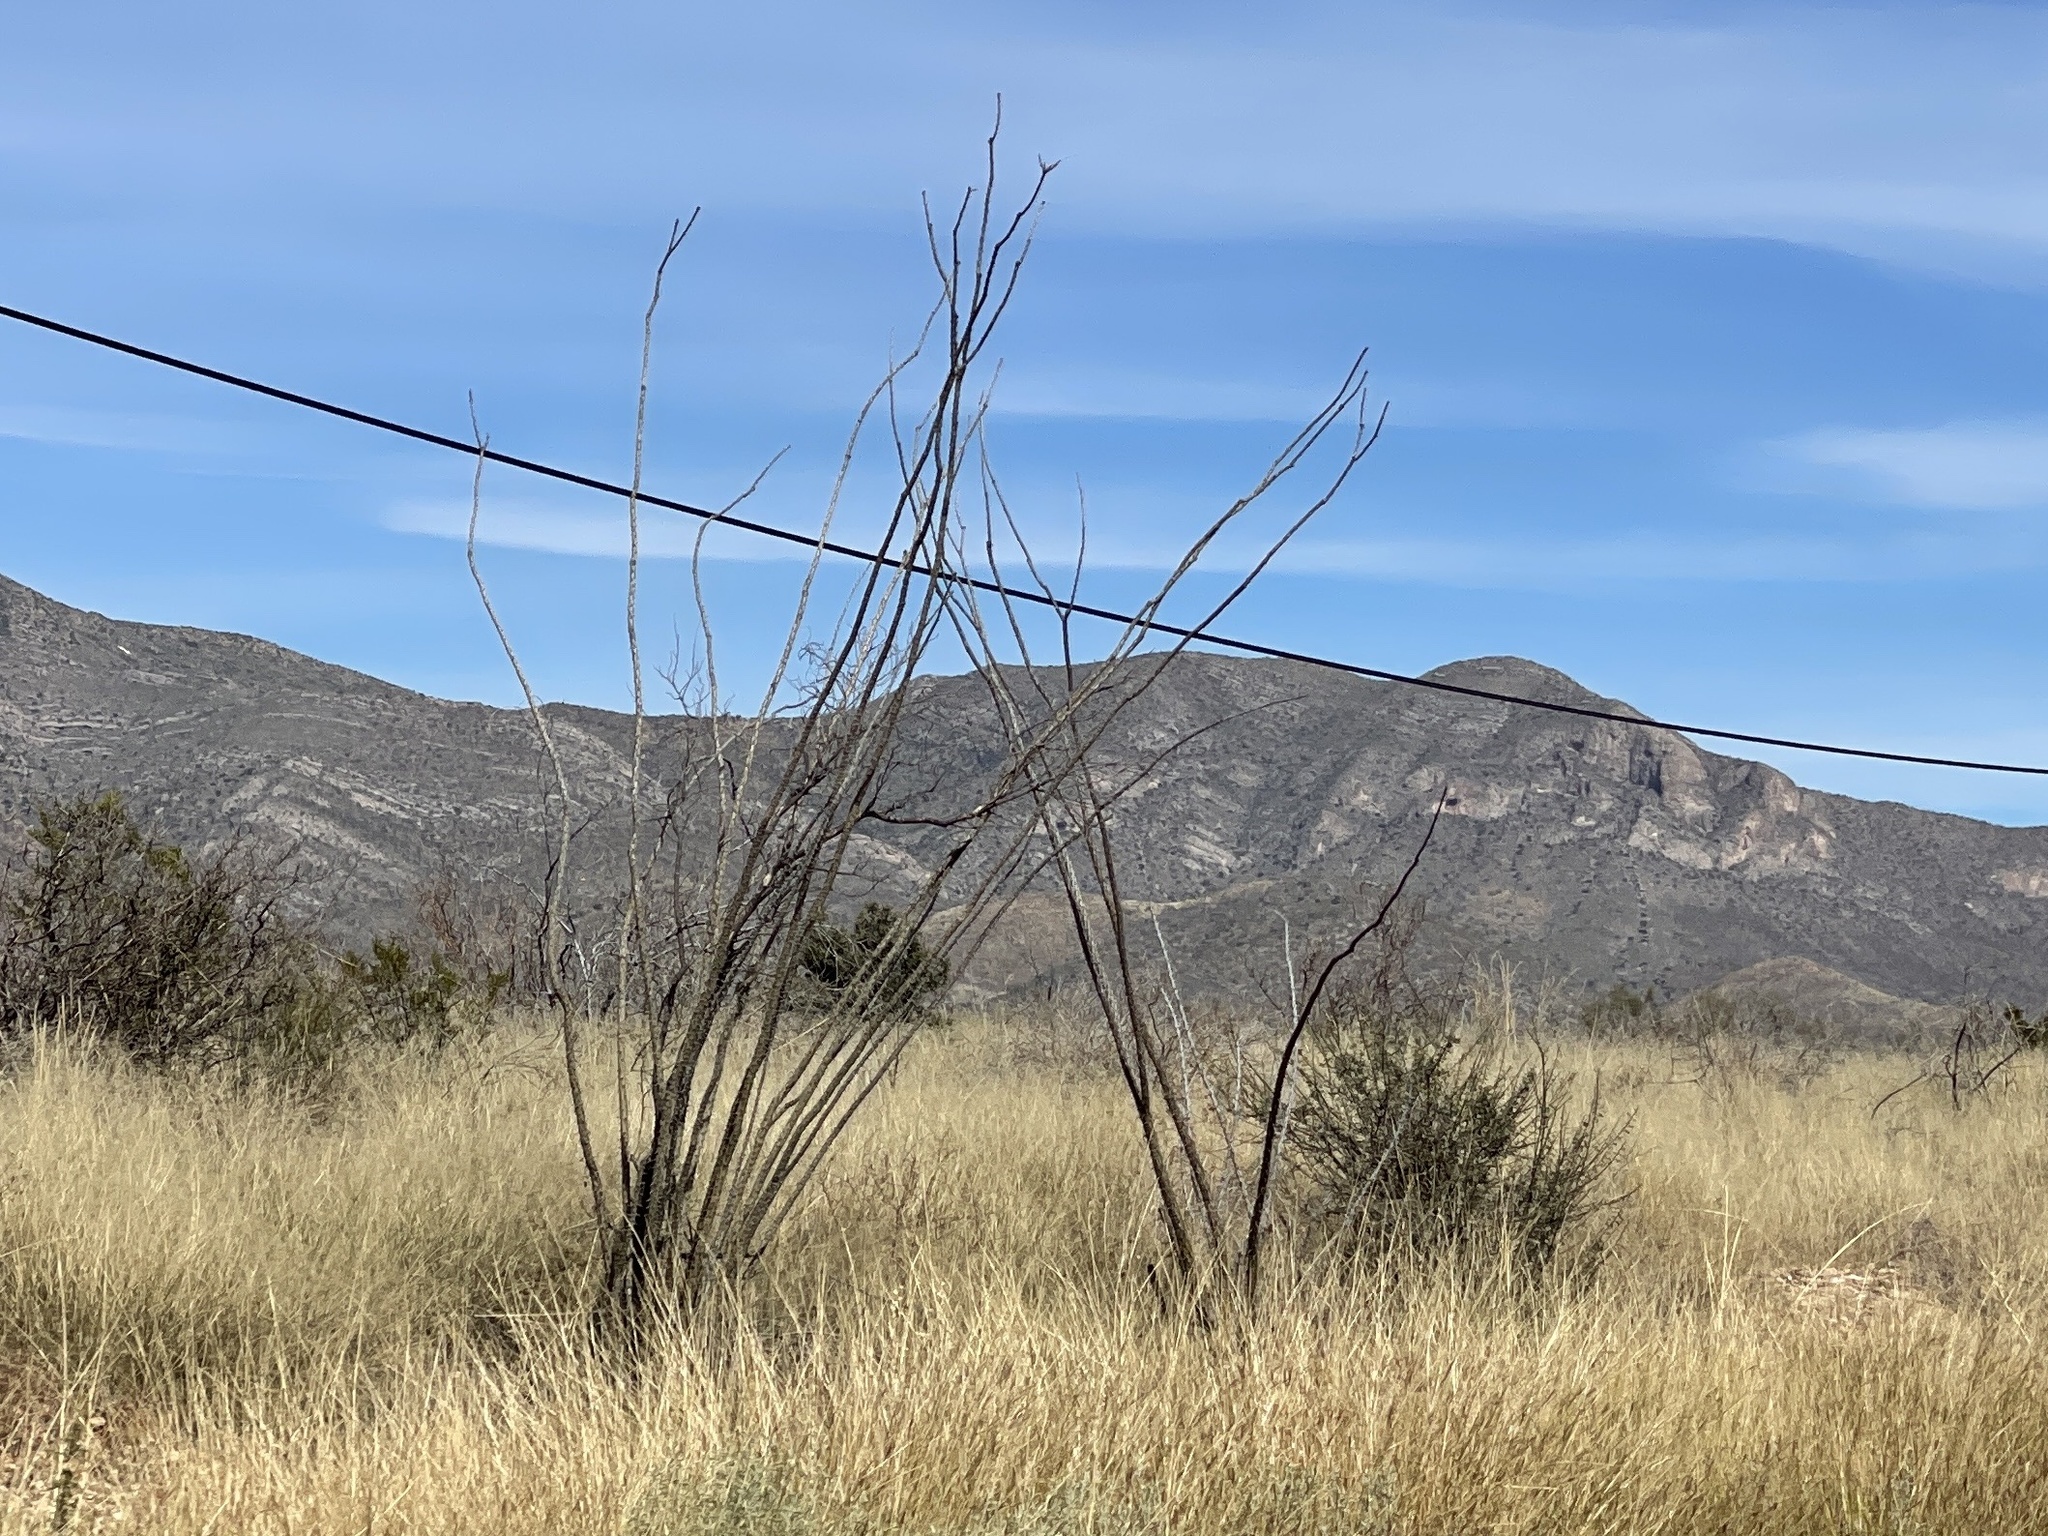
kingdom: Plantae
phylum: Tracheophyta
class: Magnoliopsida
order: Ericales
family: Fouquieriaceae
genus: Fouquieria
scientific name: Fouquieria splendens
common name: Vine-cactus
